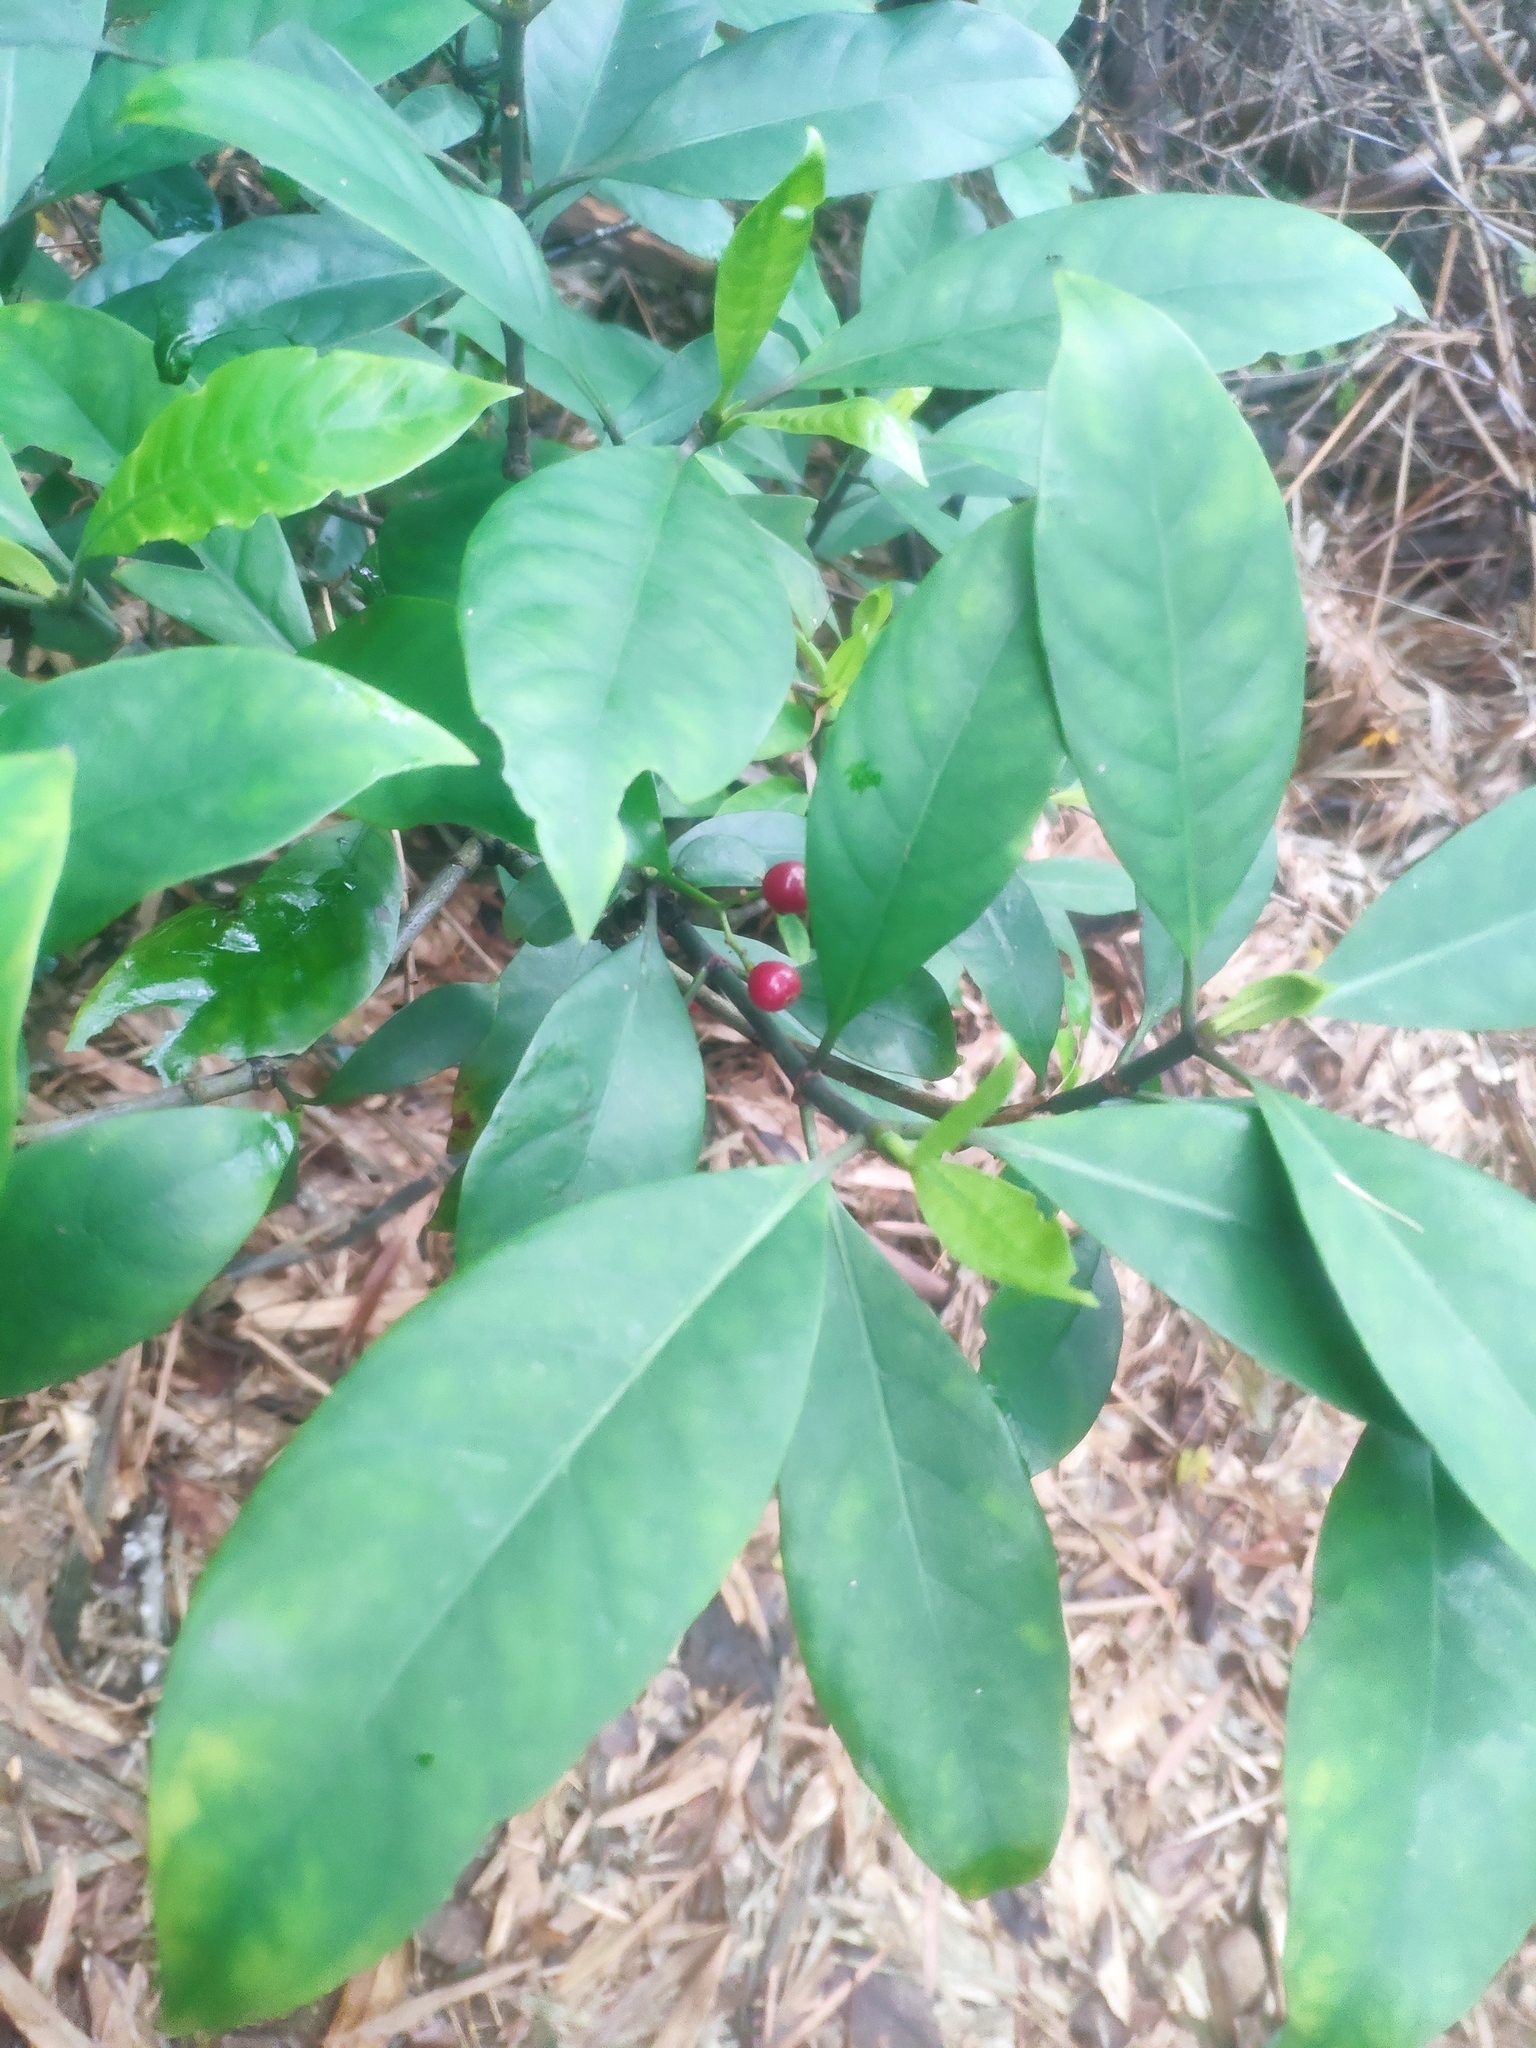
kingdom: Plantae
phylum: Tracheophyta
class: Magnoliopsida
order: Gentianales
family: Rubiaceae
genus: Psychotria
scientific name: Psychotria asiatica
